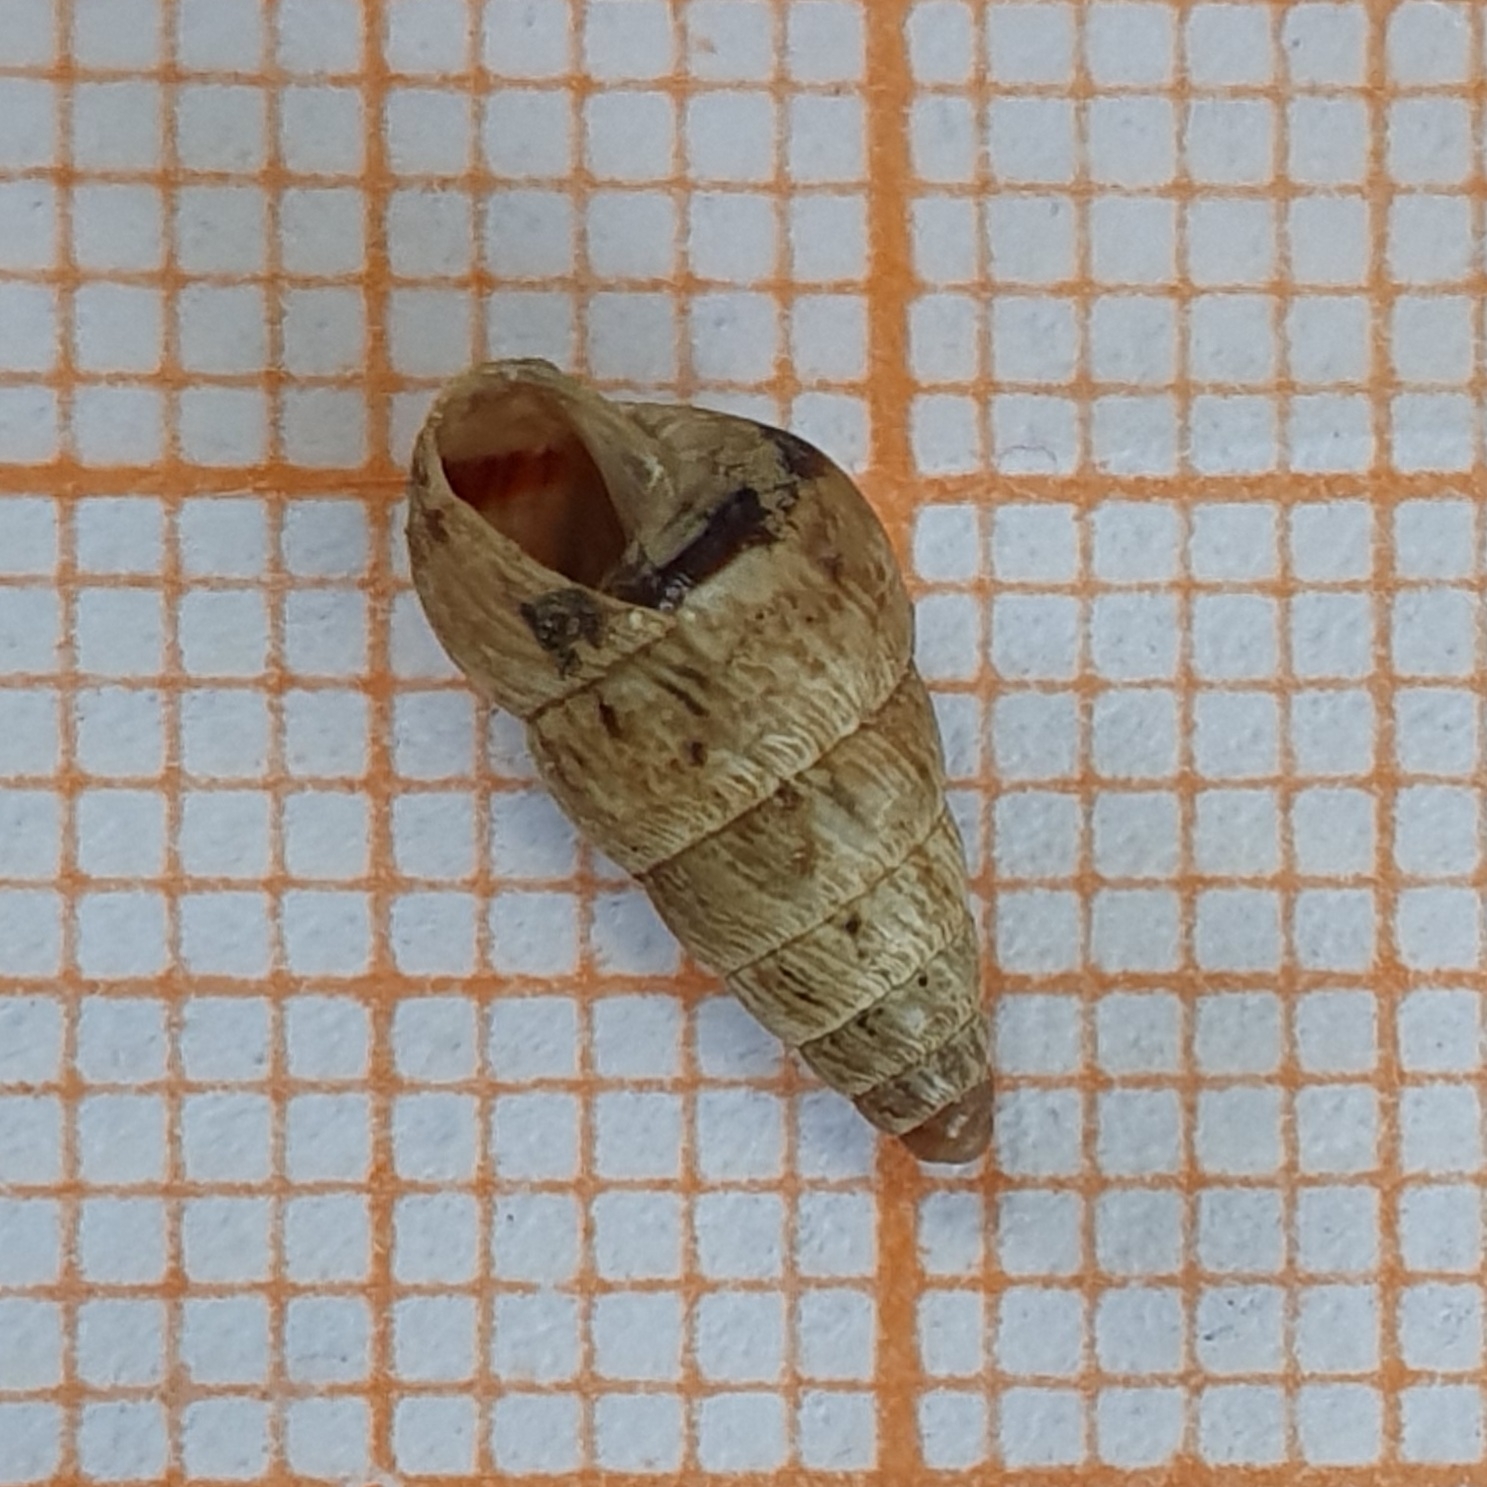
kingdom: Animalia
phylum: Mollusca
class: Gastropoda
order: Stylommatophora
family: Geomitridae
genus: Cochlicella
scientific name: Cochlicella acuta
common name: Pointed snail
